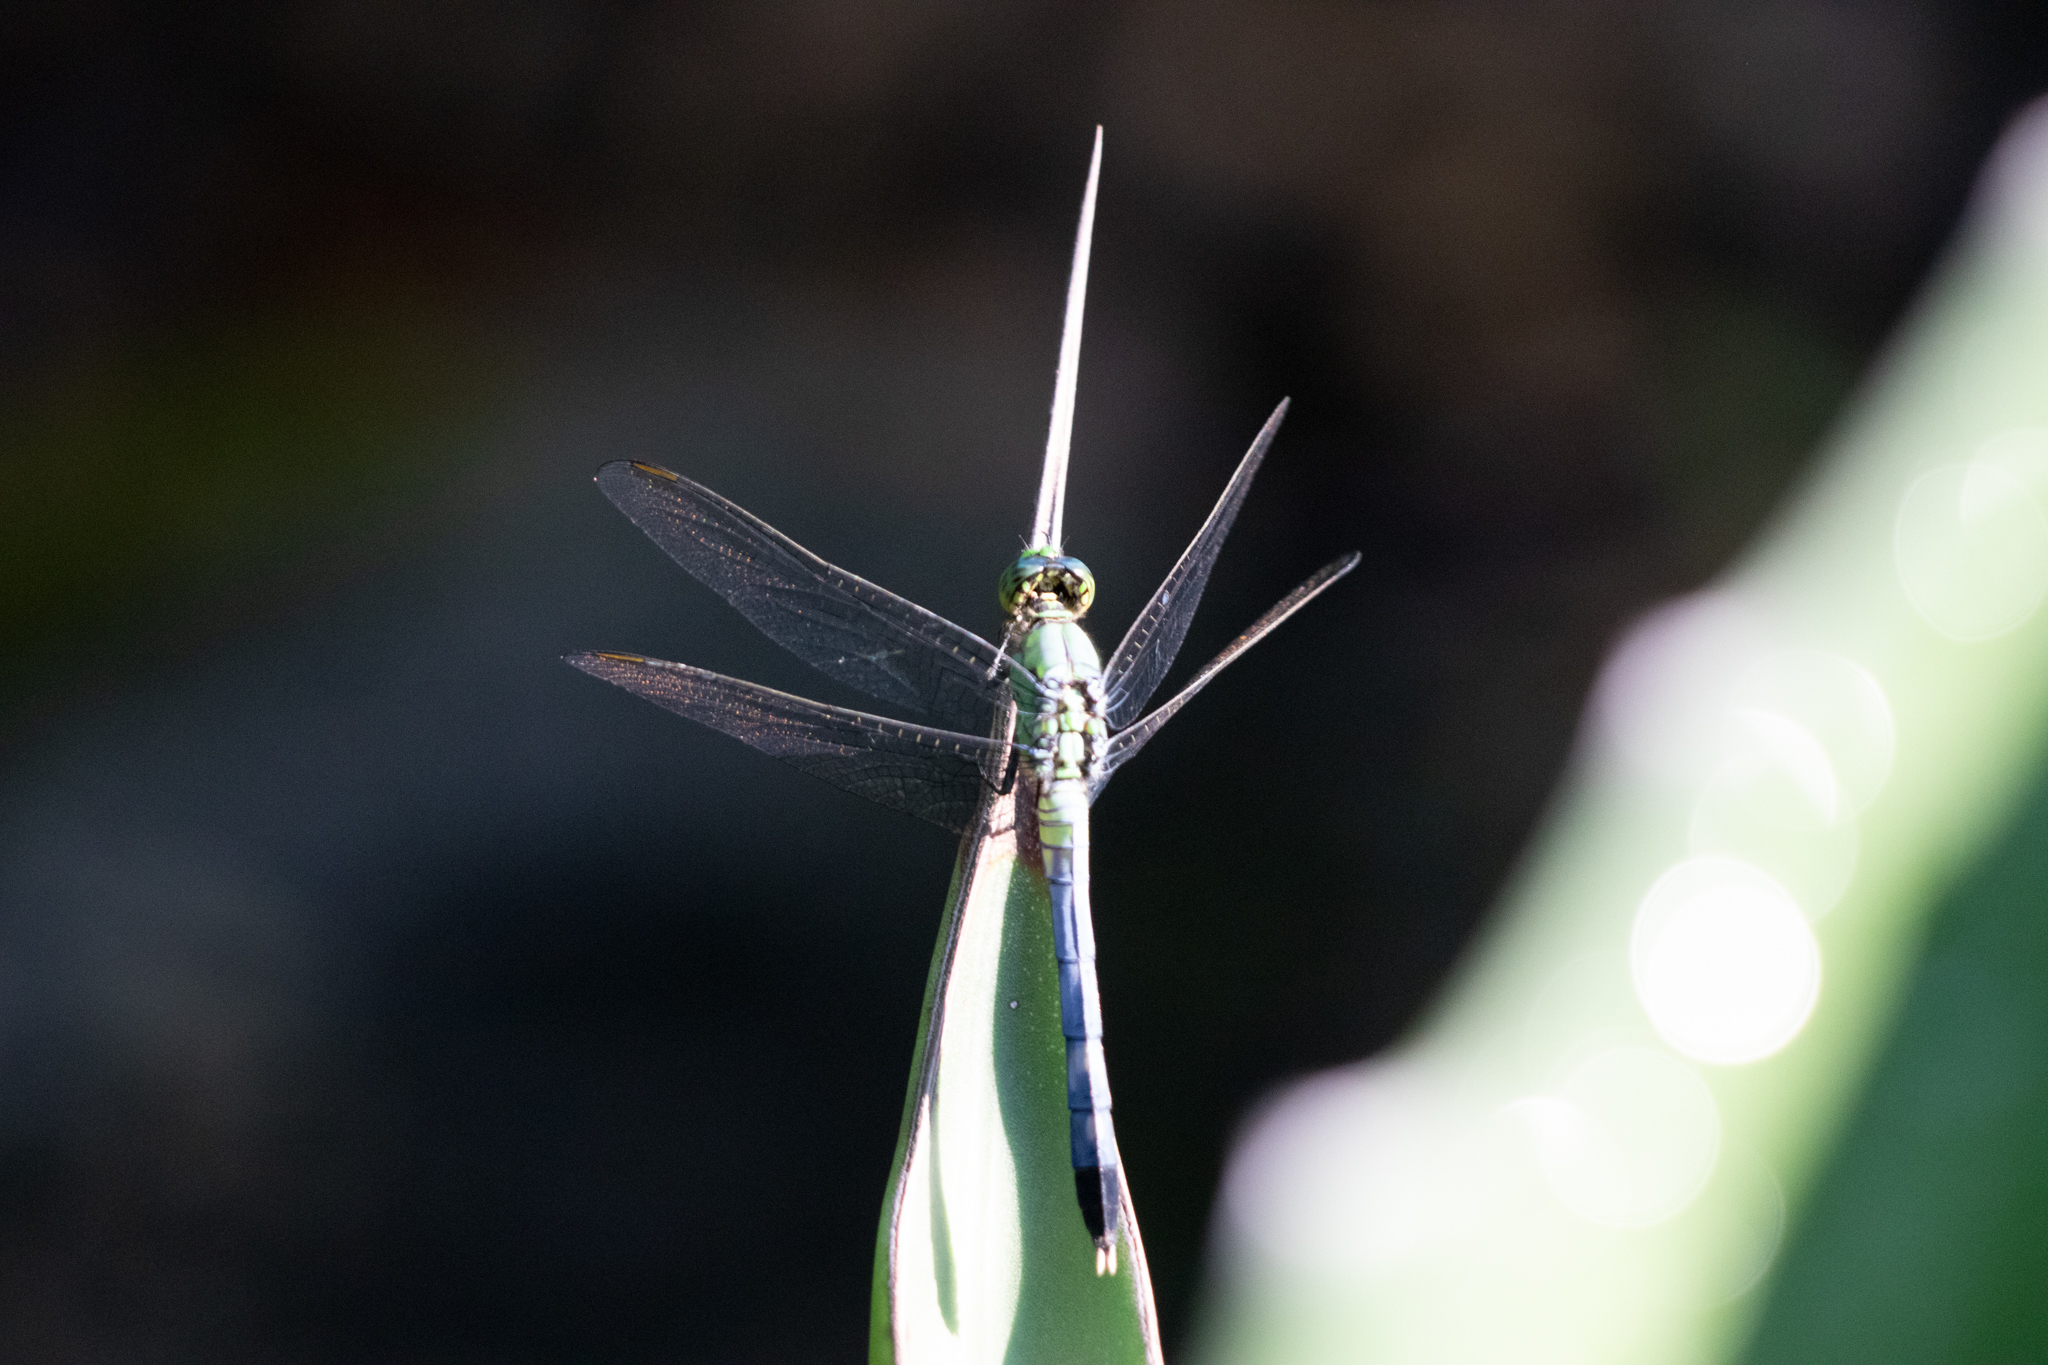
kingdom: Animalia
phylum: Arthropoda
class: Insecta
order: Odonata
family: Libellulidae
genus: Erythemis
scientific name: Erythemis simplicicollis
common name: Eastern pondhawk
